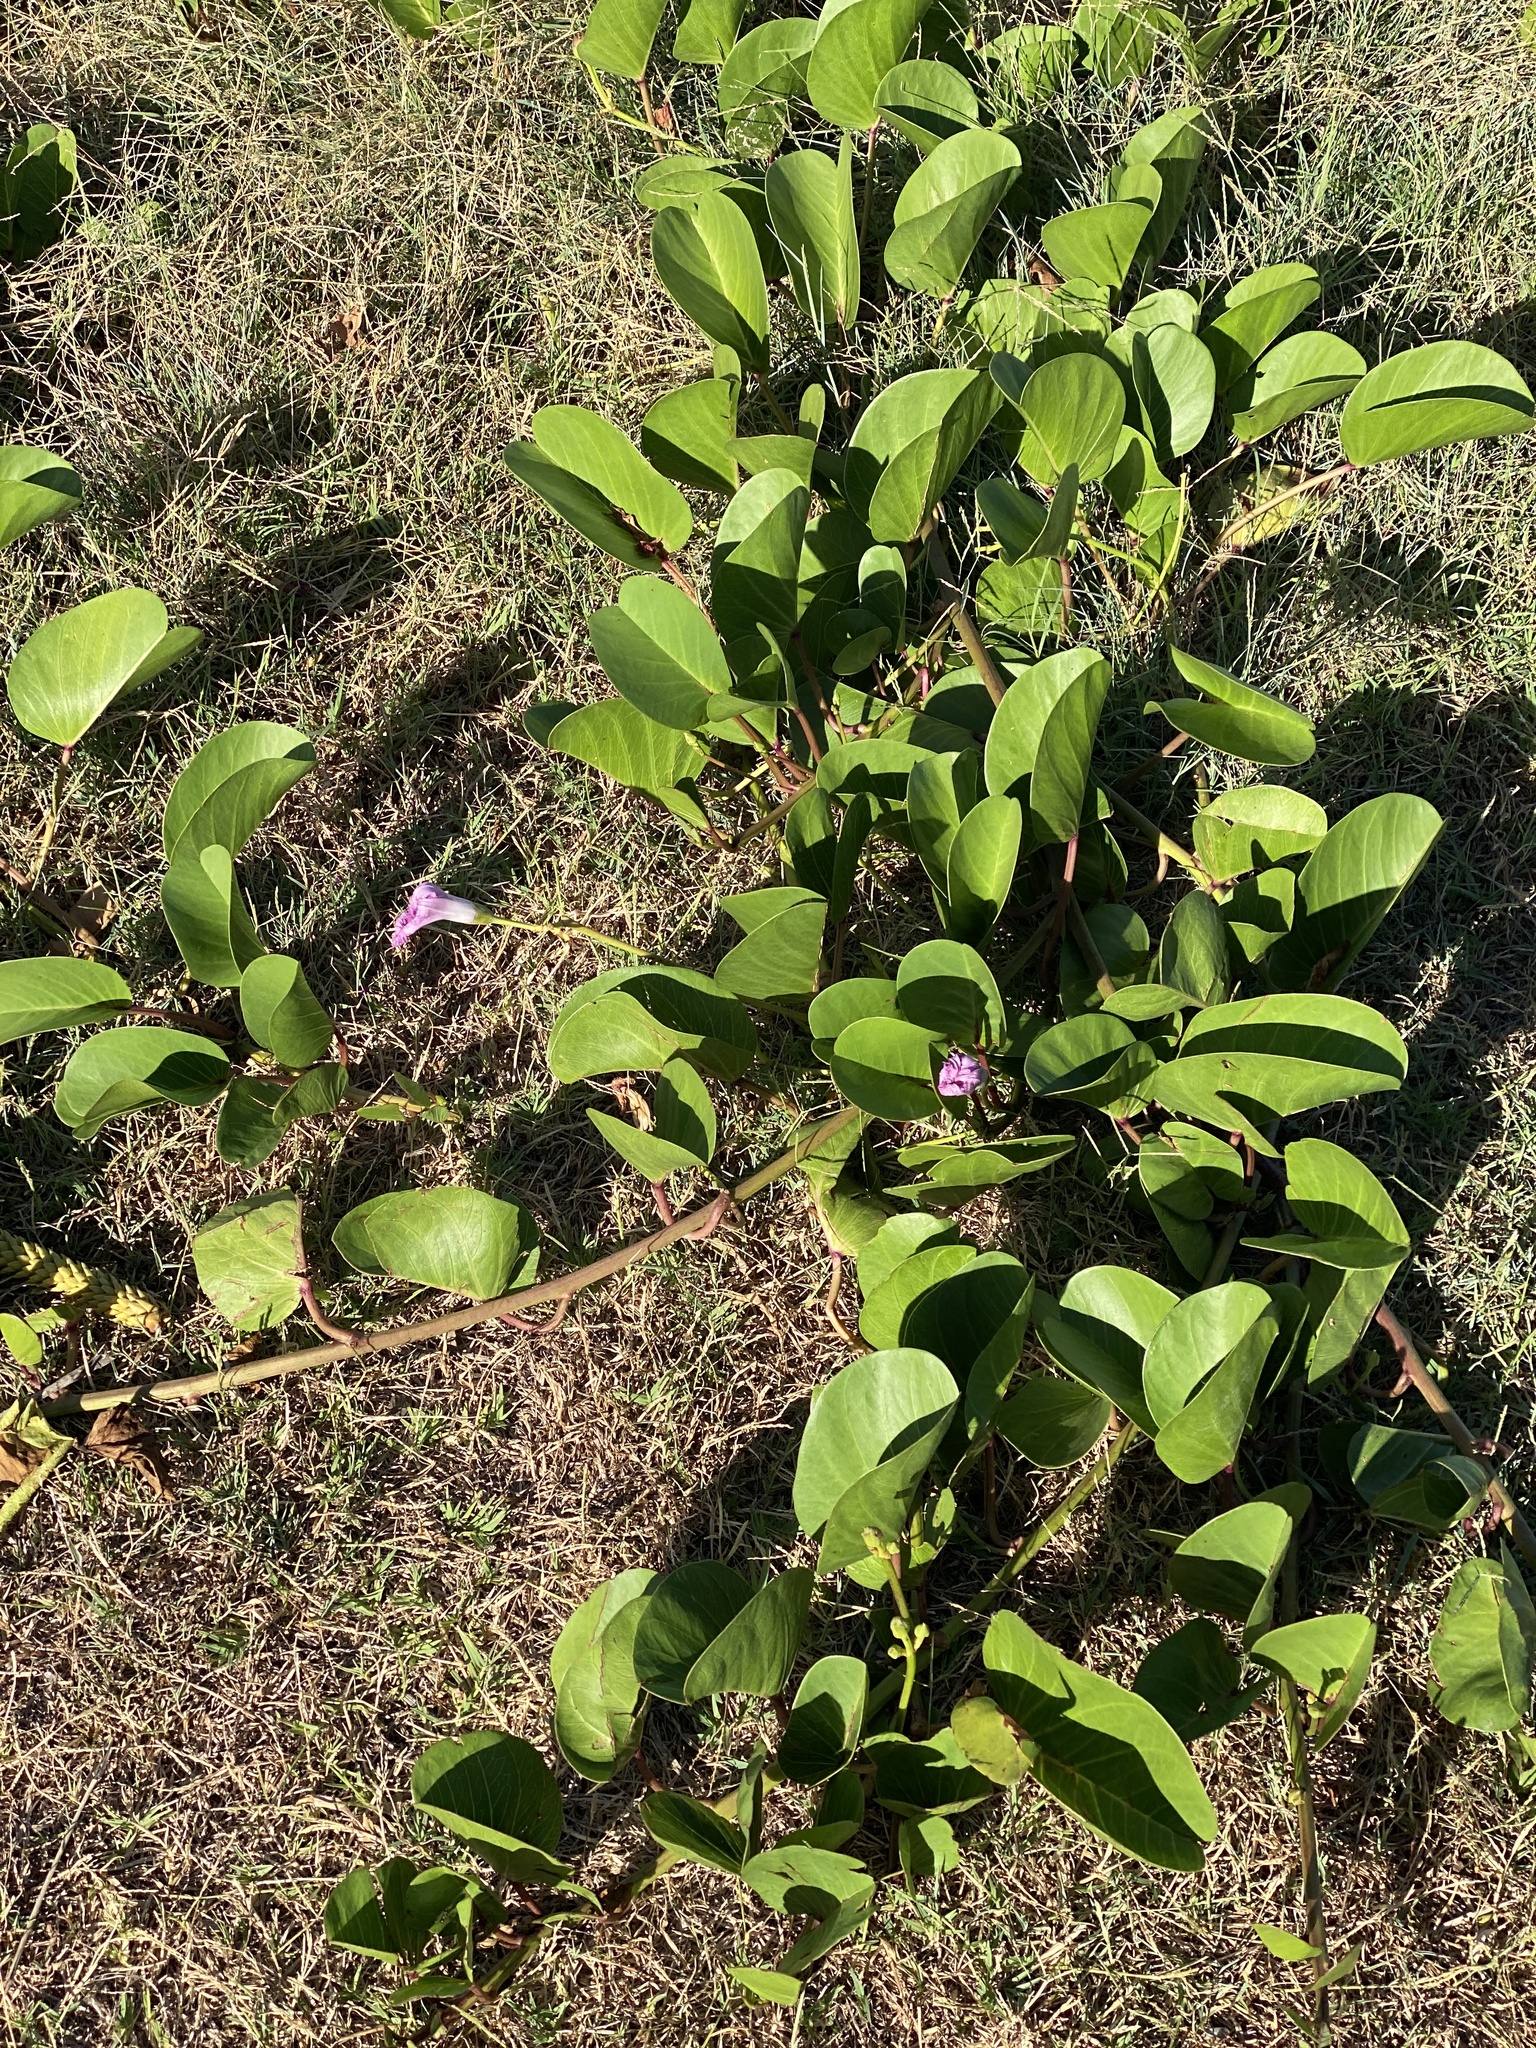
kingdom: Plantae
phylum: Tracheophyta
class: Magnoliopsida
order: Solanales
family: Convolvulaceae
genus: Ipomoea
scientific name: Ipomoea pes-caprae
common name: Beach morning glory
